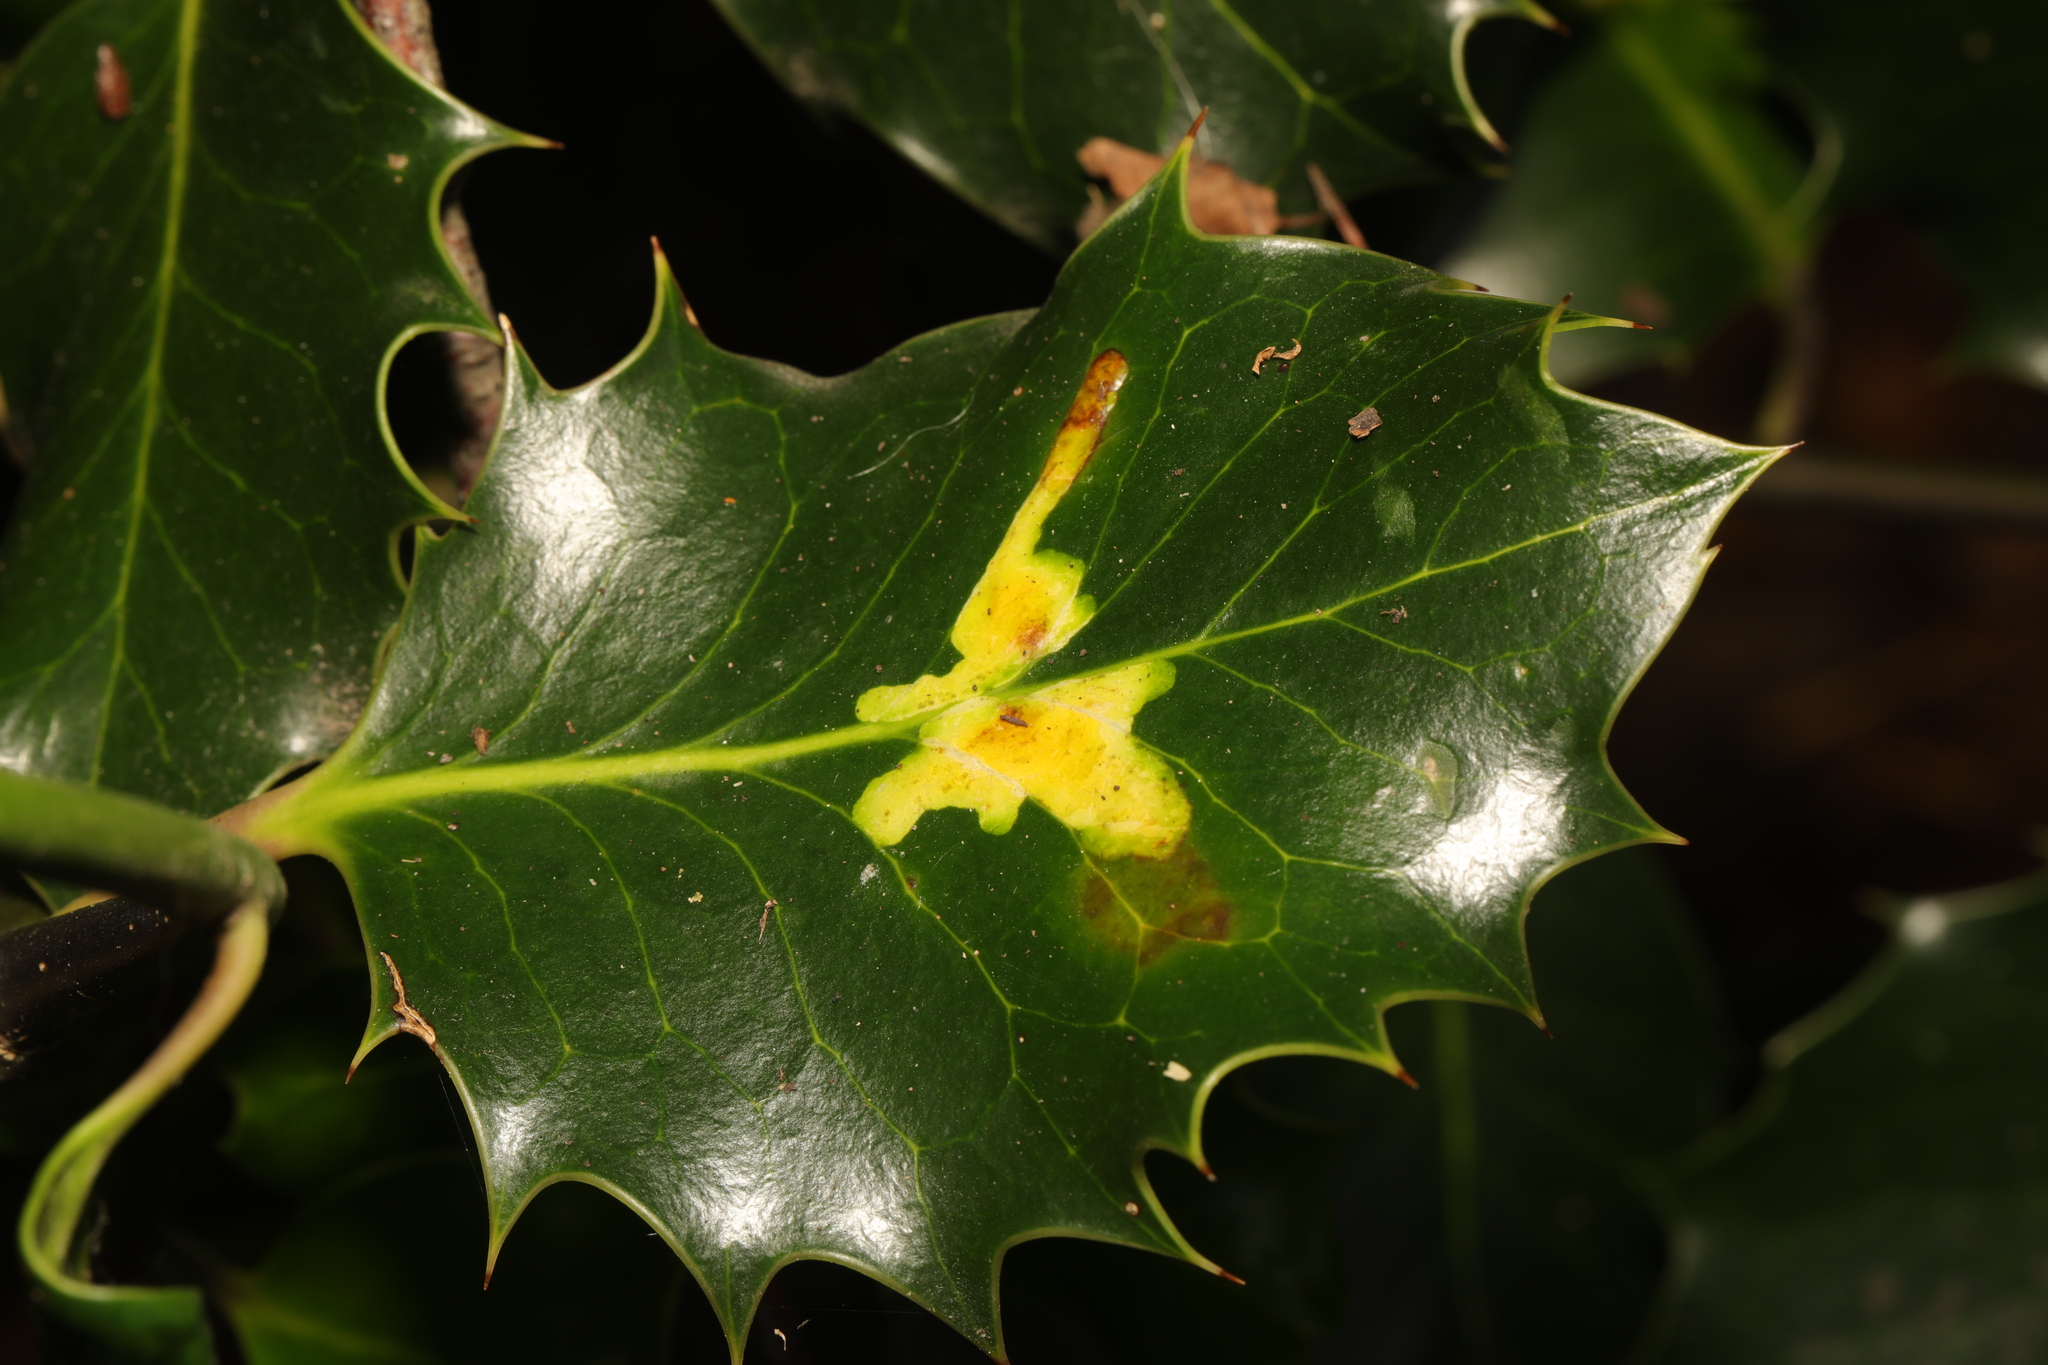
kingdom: Animalia
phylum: Arthropoda
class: Insecta
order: Diptera
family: Agromyzidae
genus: Phytomyza
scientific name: Phytomyza ilicis
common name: Holly leafminer
